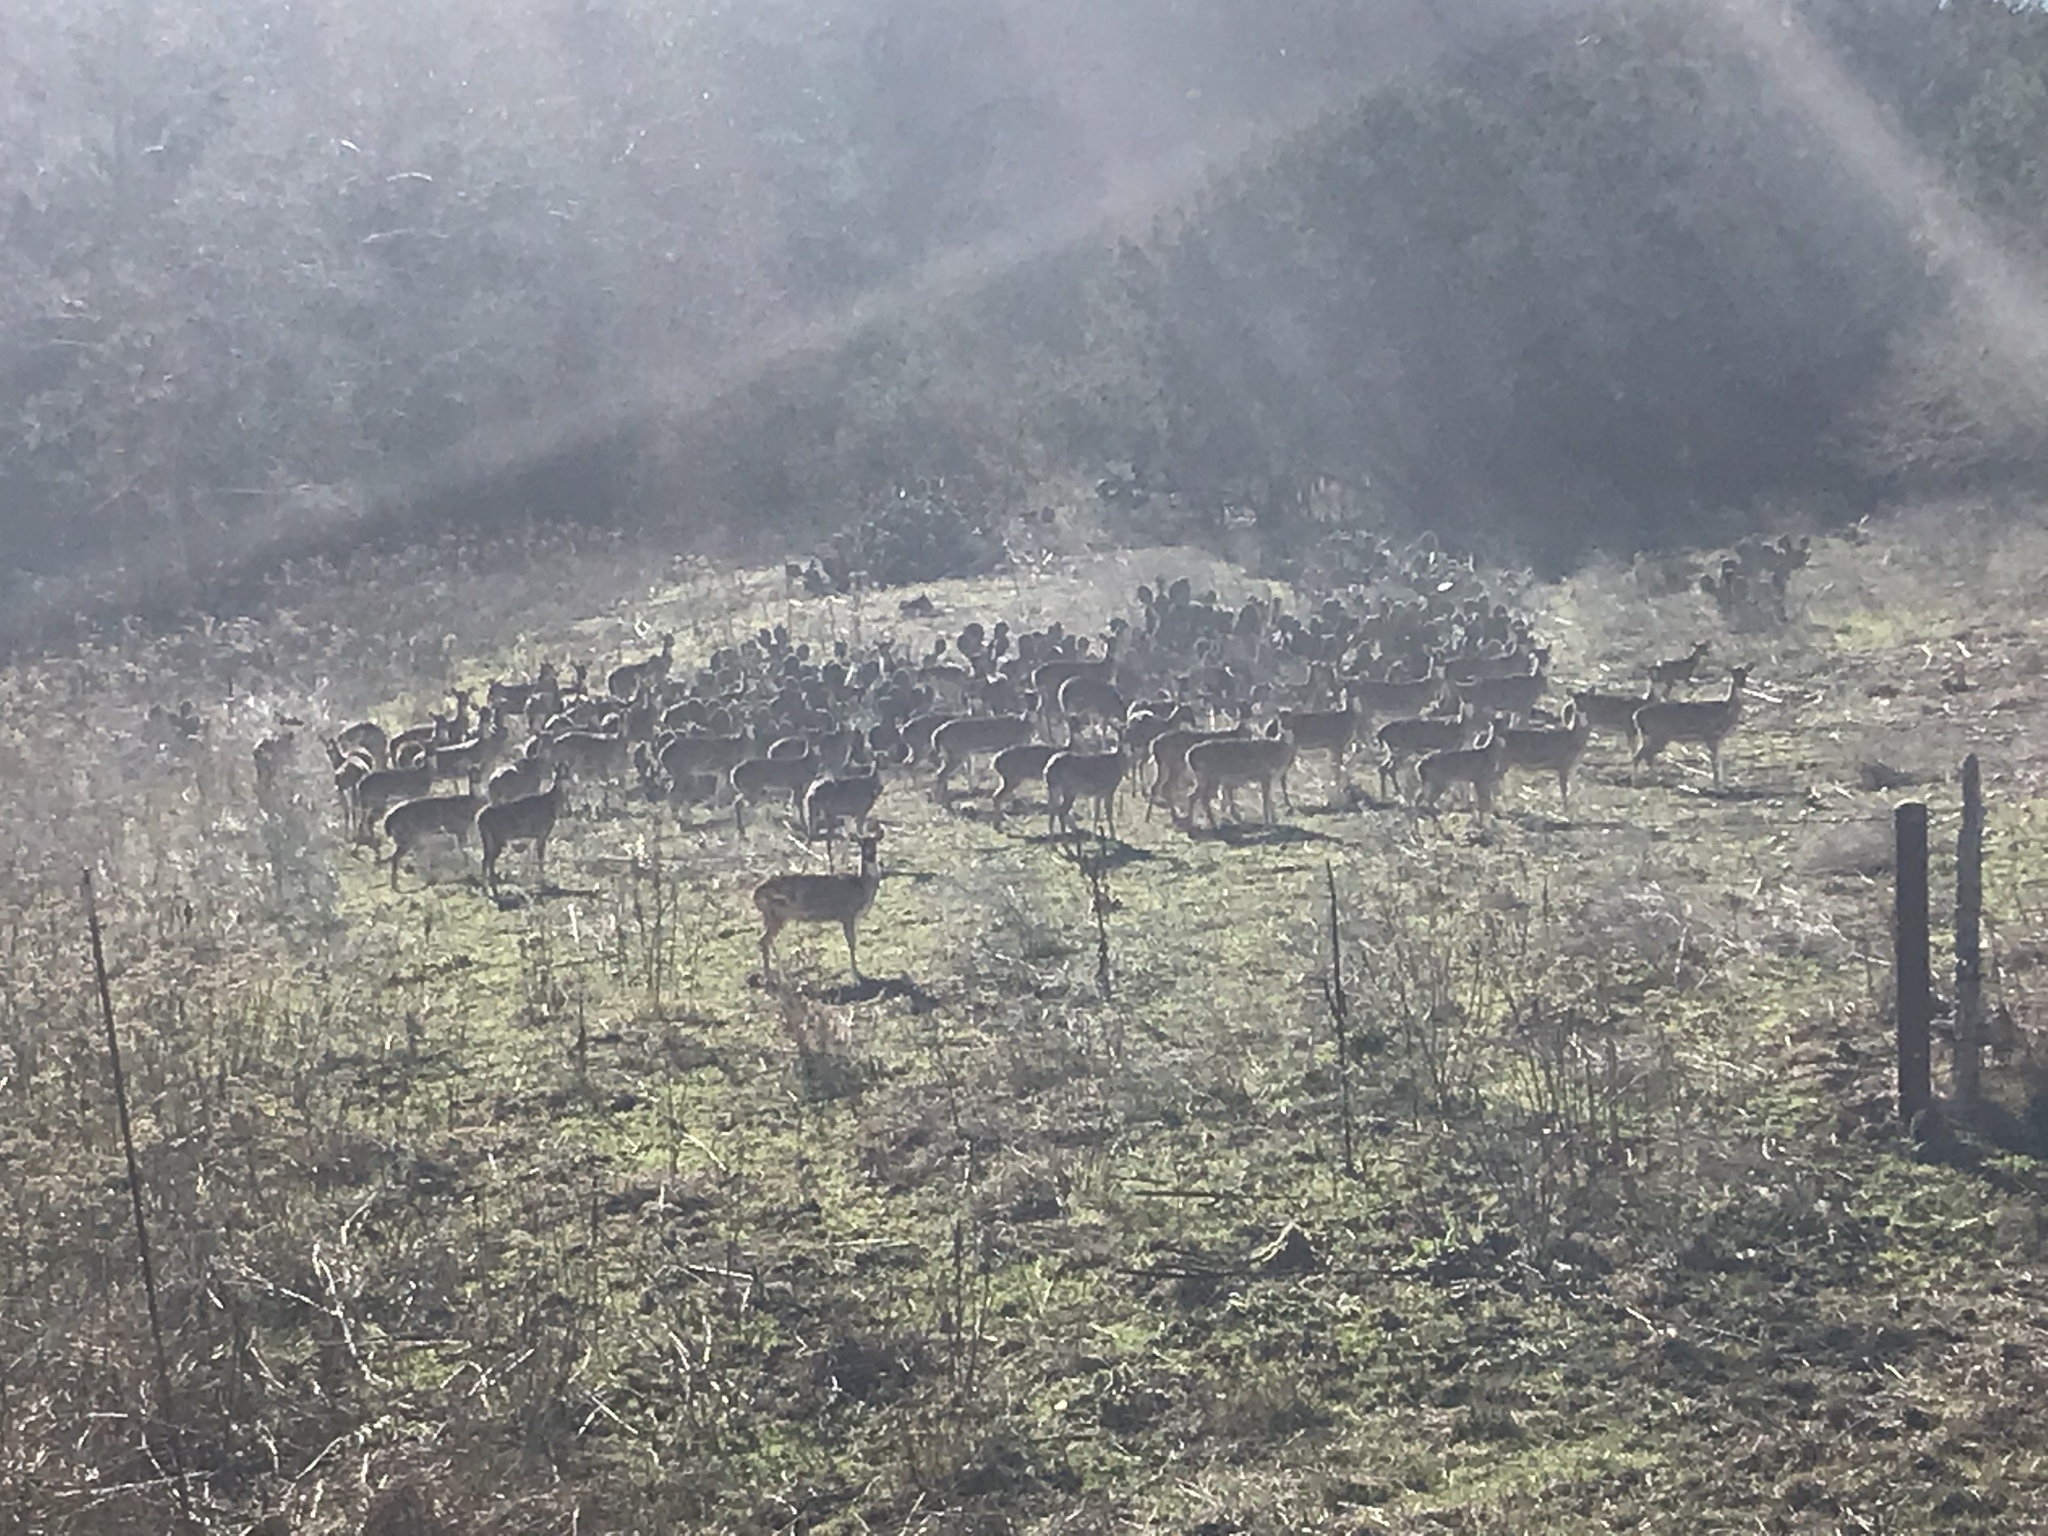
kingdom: Animalia
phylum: Chordata
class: Mammalia
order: Artiodactyla
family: Cervidae
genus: Axis
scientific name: Axis axis
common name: Chital
